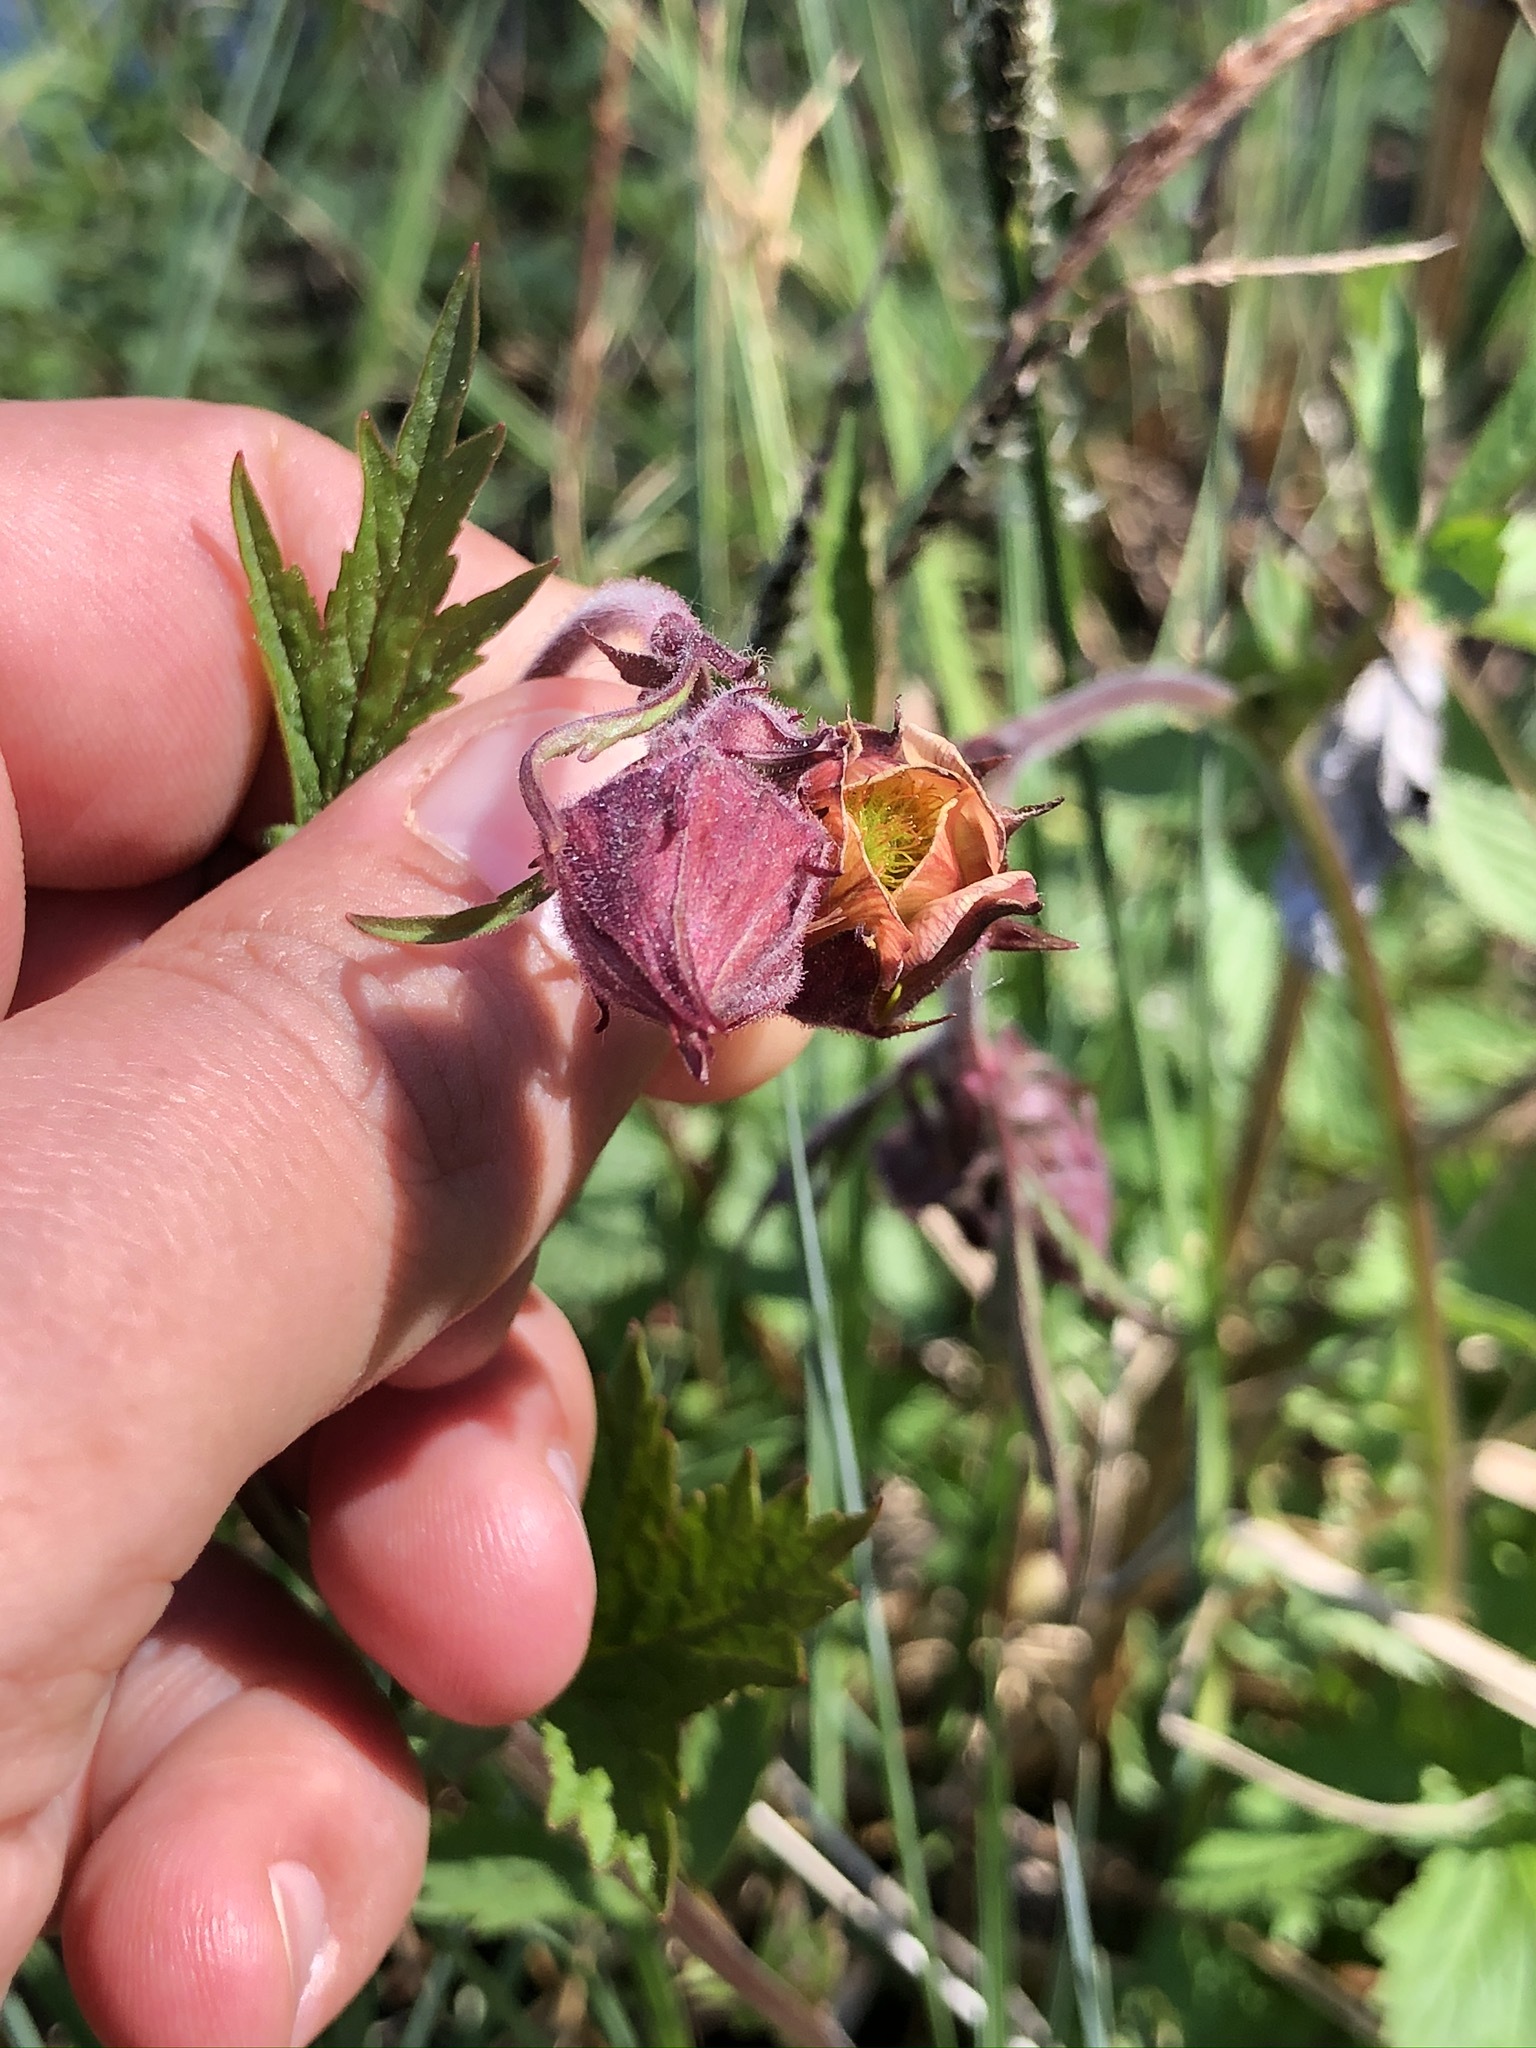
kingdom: Plantae
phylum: Tracheophyta
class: Magnoliopsida
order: Rosales
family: Rosaceae
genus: Geum
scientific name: Geum rivale
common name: Water avens
